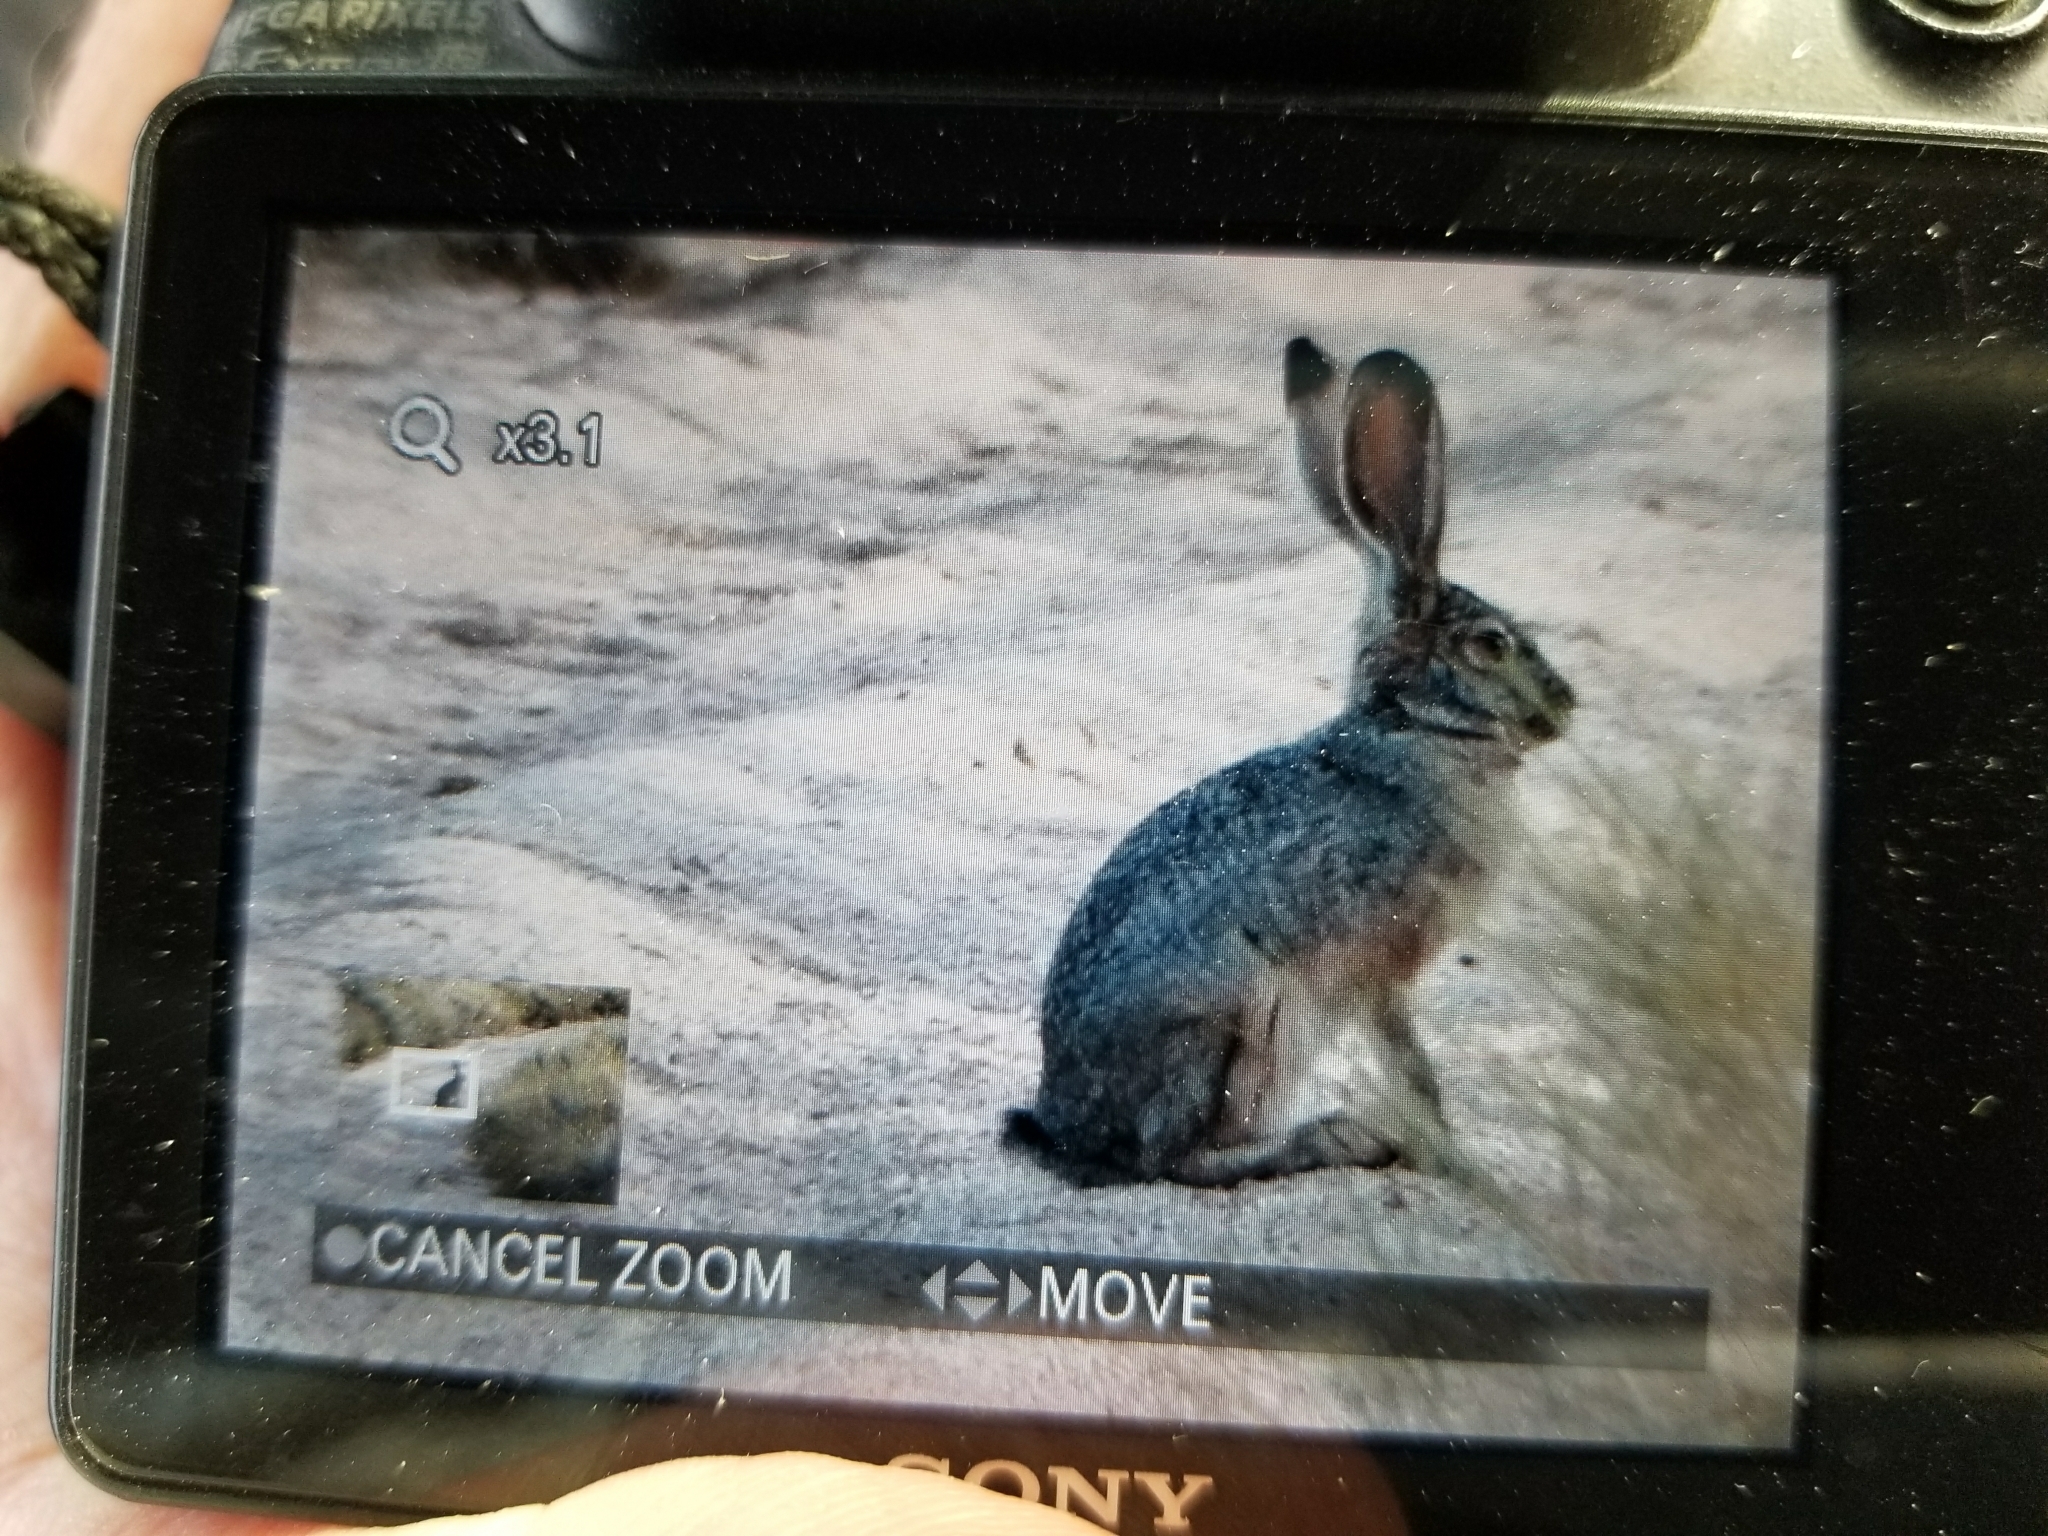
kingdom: Animalia
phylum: Chordata
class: Mammalia
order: Lagomorpha
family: Leporidae
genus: Lepus
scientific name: Lepus californicus
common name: Black-tailed jackrabbit
